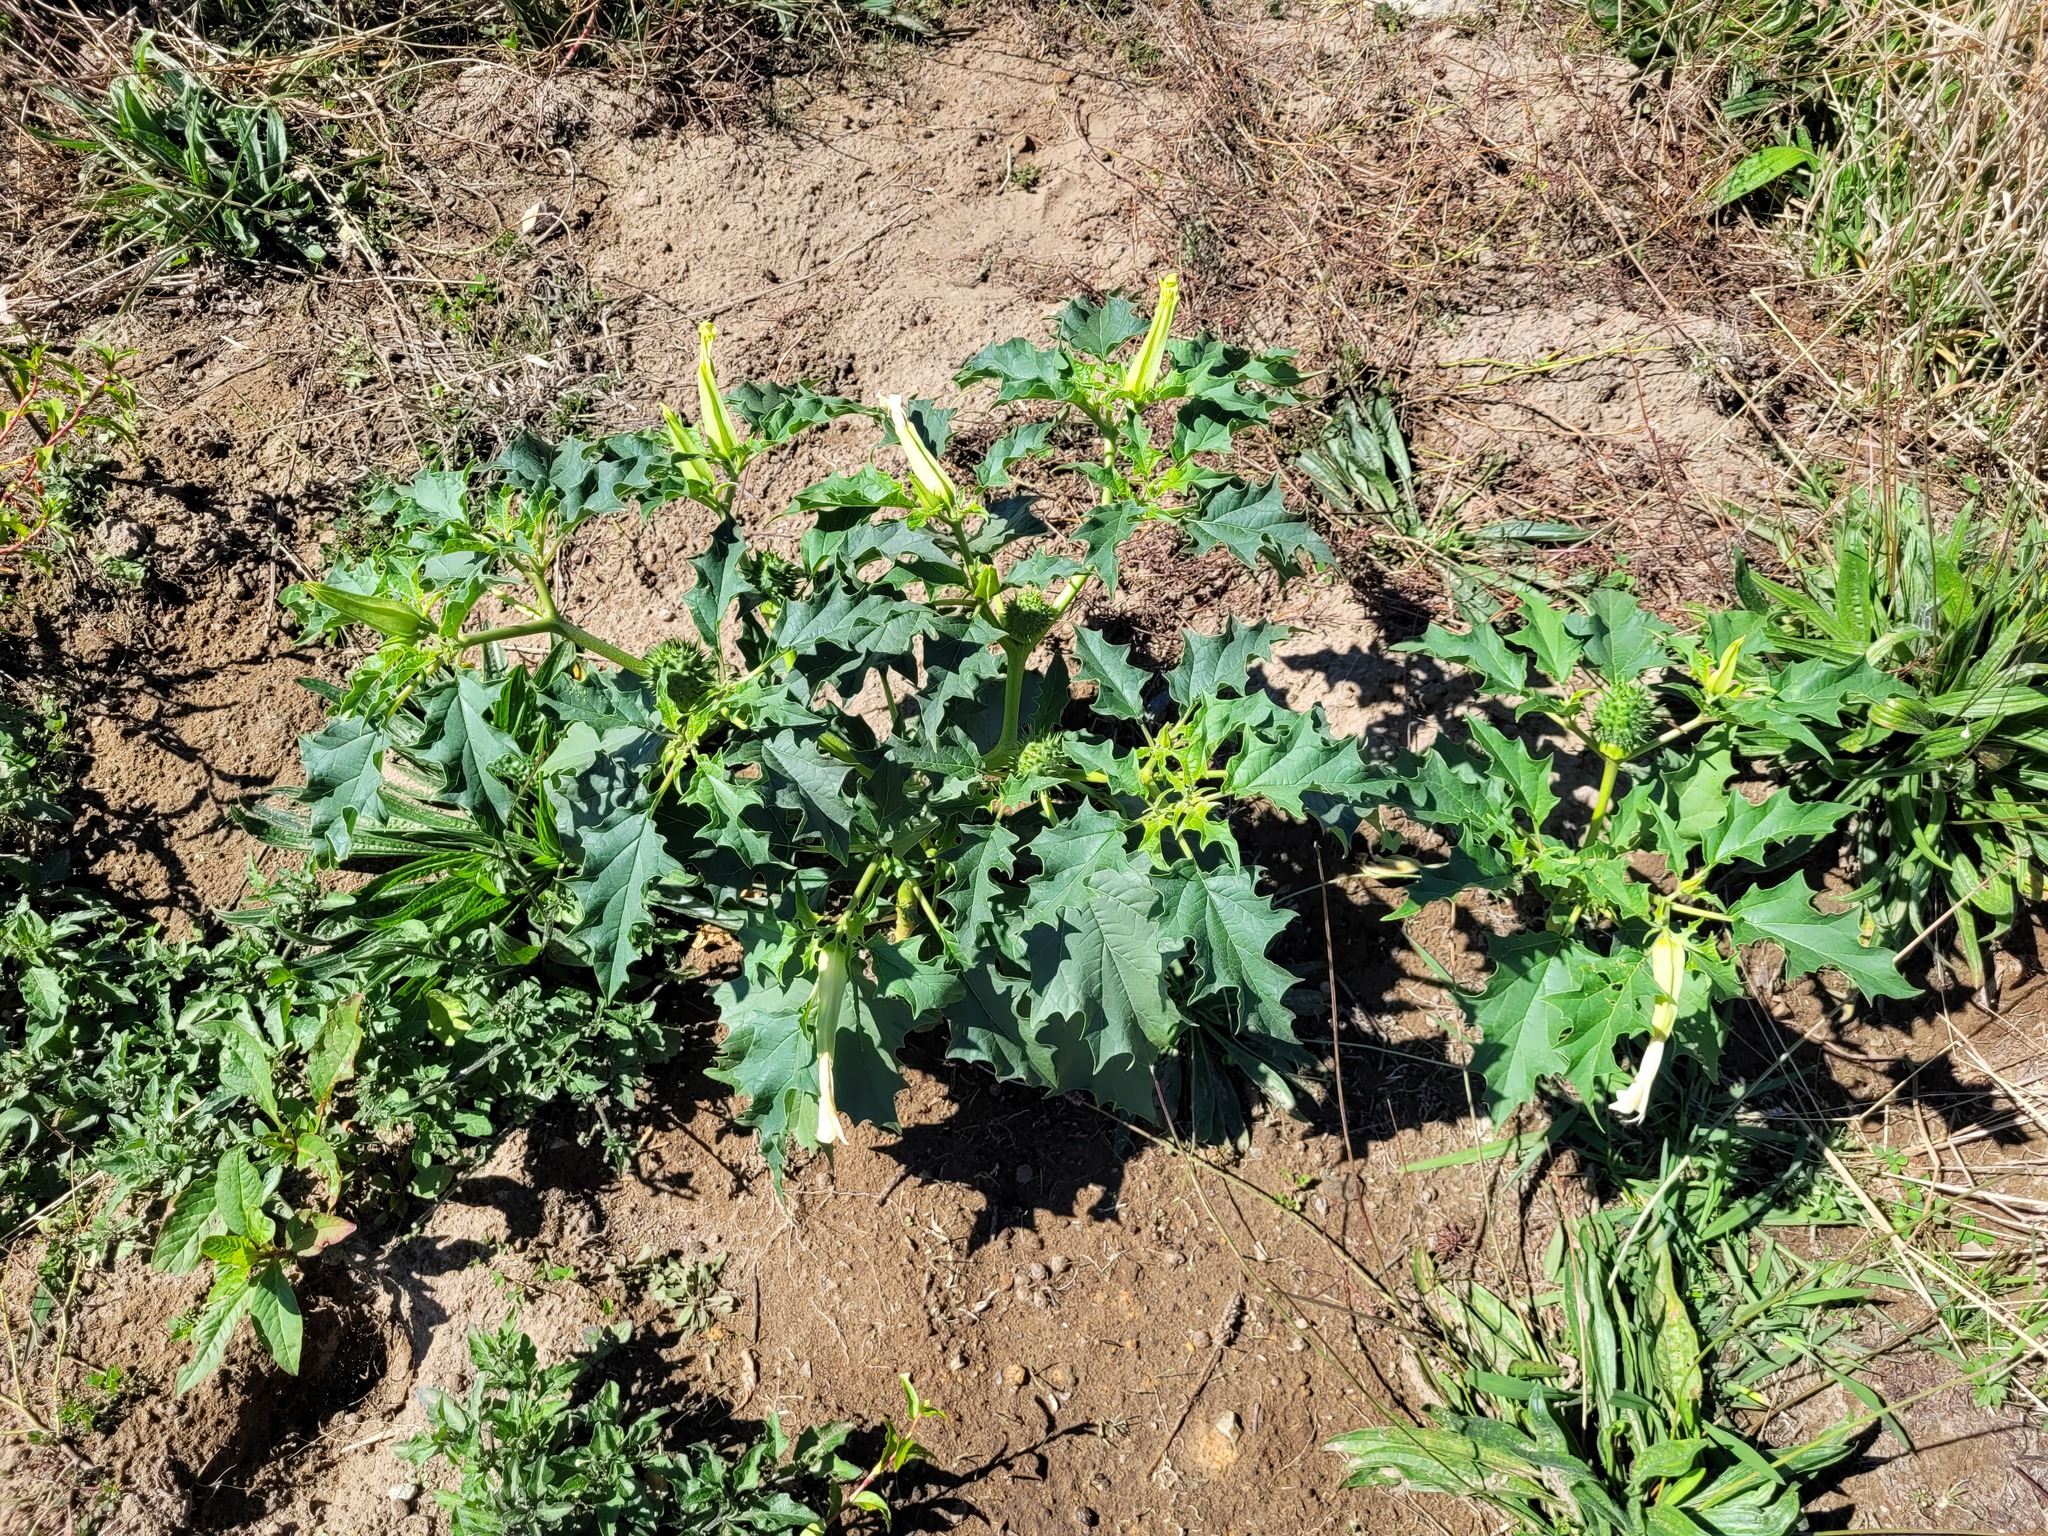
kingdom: Plantae
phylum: Tracheophyta
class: Magnoliopsida
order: Solanales
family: Solanaceae
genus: Datura
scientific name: Datura stramonium
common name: Thorn-apple
